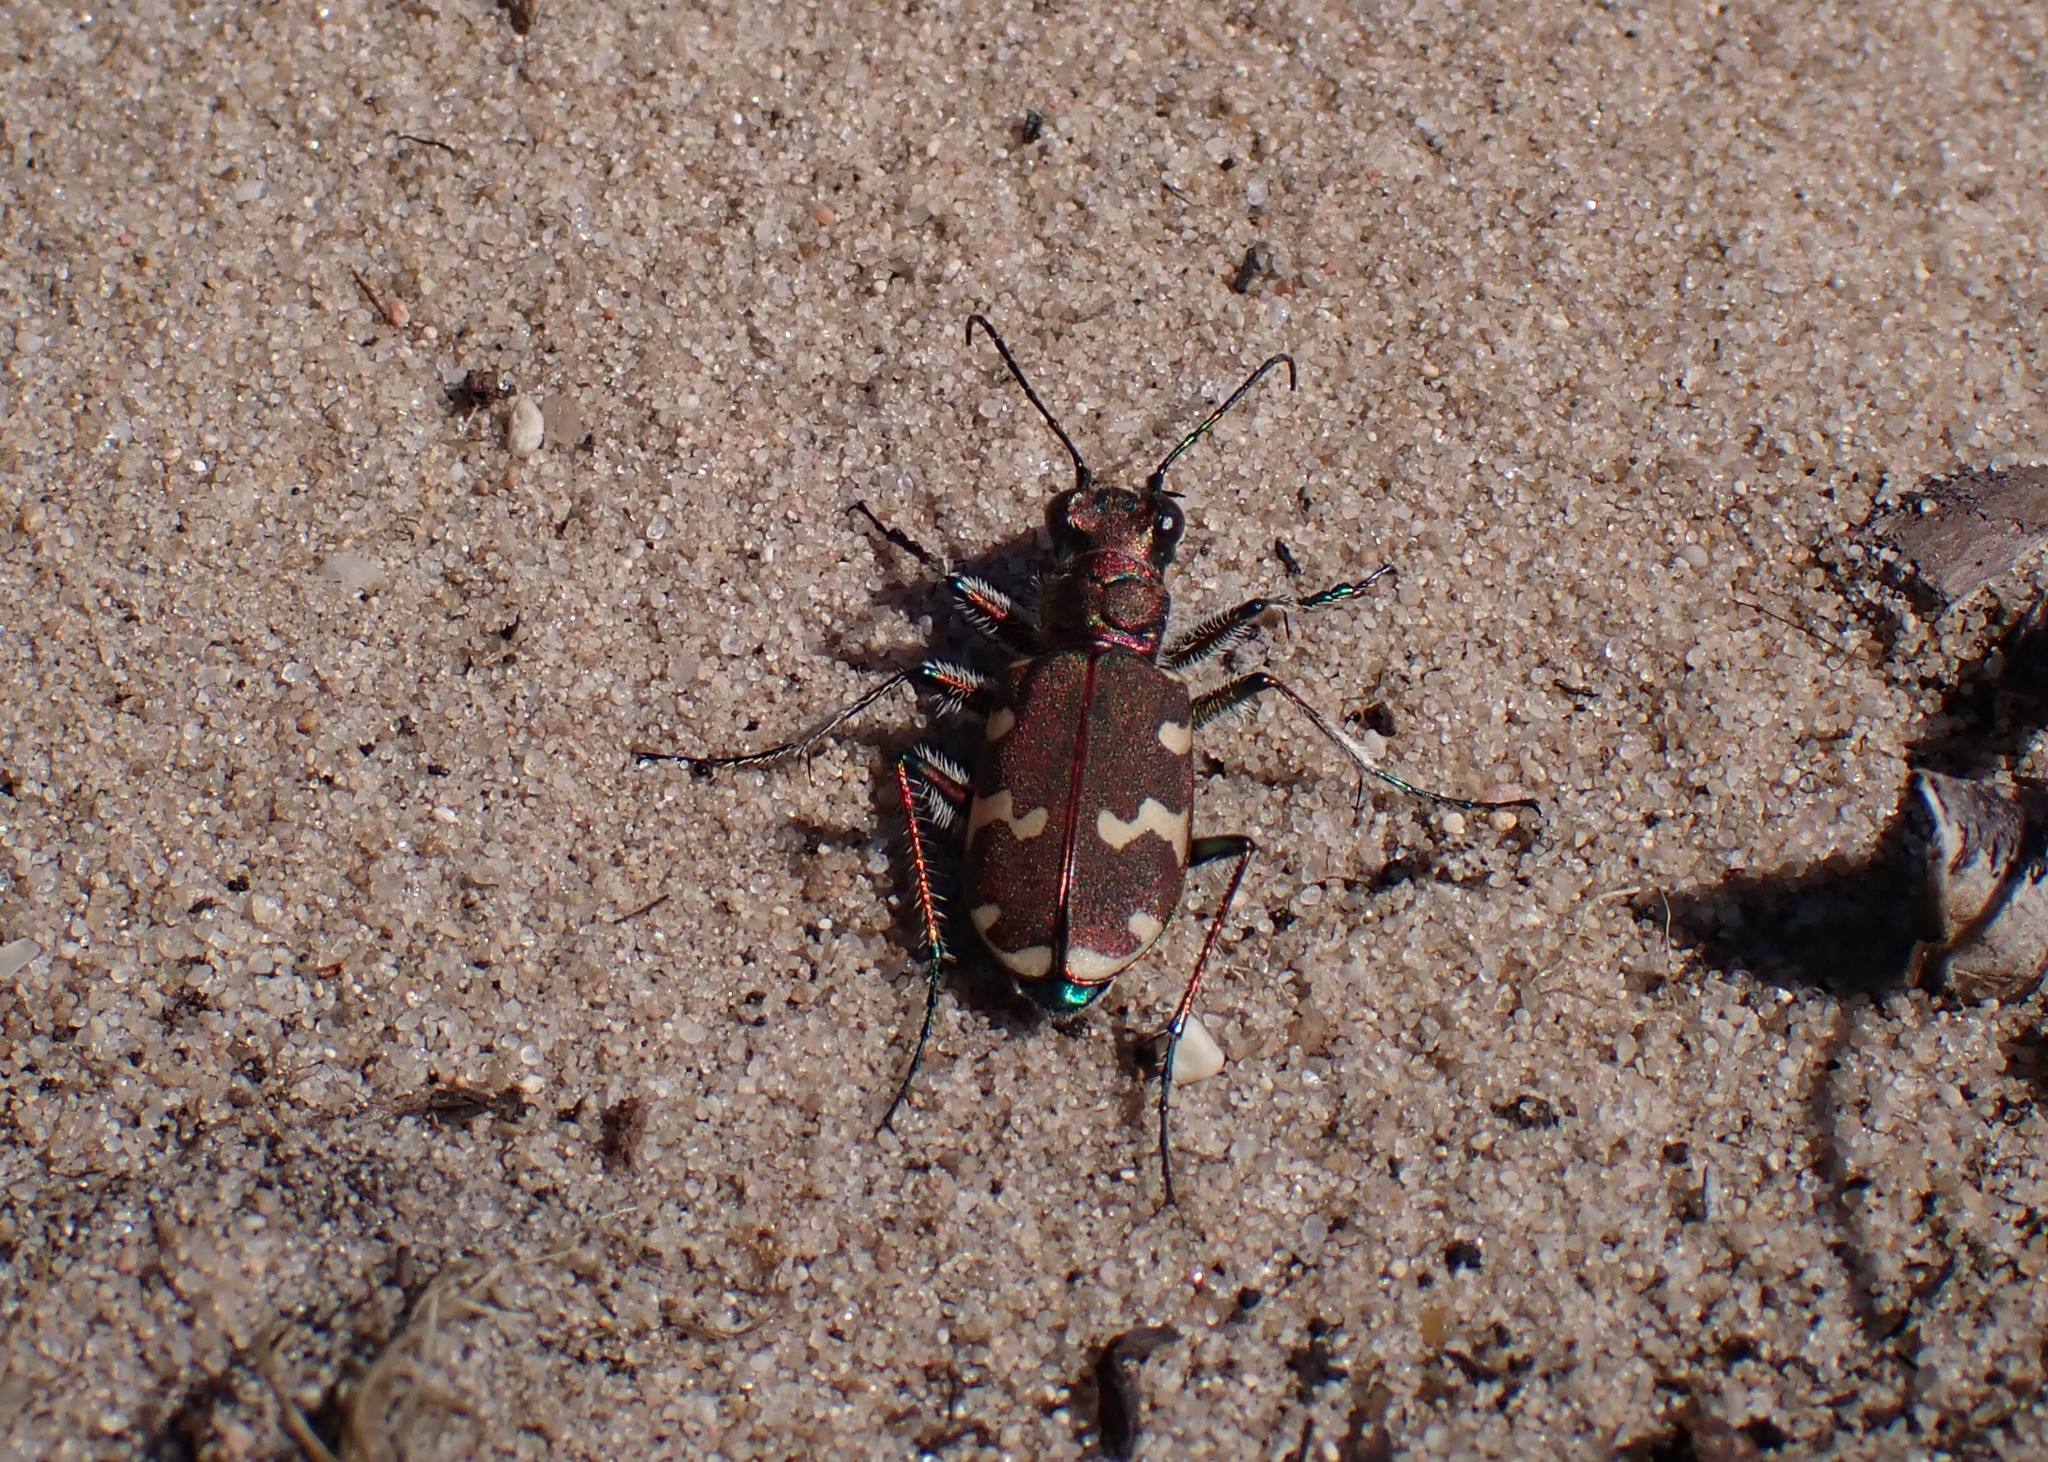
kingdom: Animalia
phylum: Arthropoda
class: Insecta
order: Coleoptera
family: Carabidae
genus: Cicindela
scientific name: Cicindela hybrida
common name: Northern dune tiger beetle
